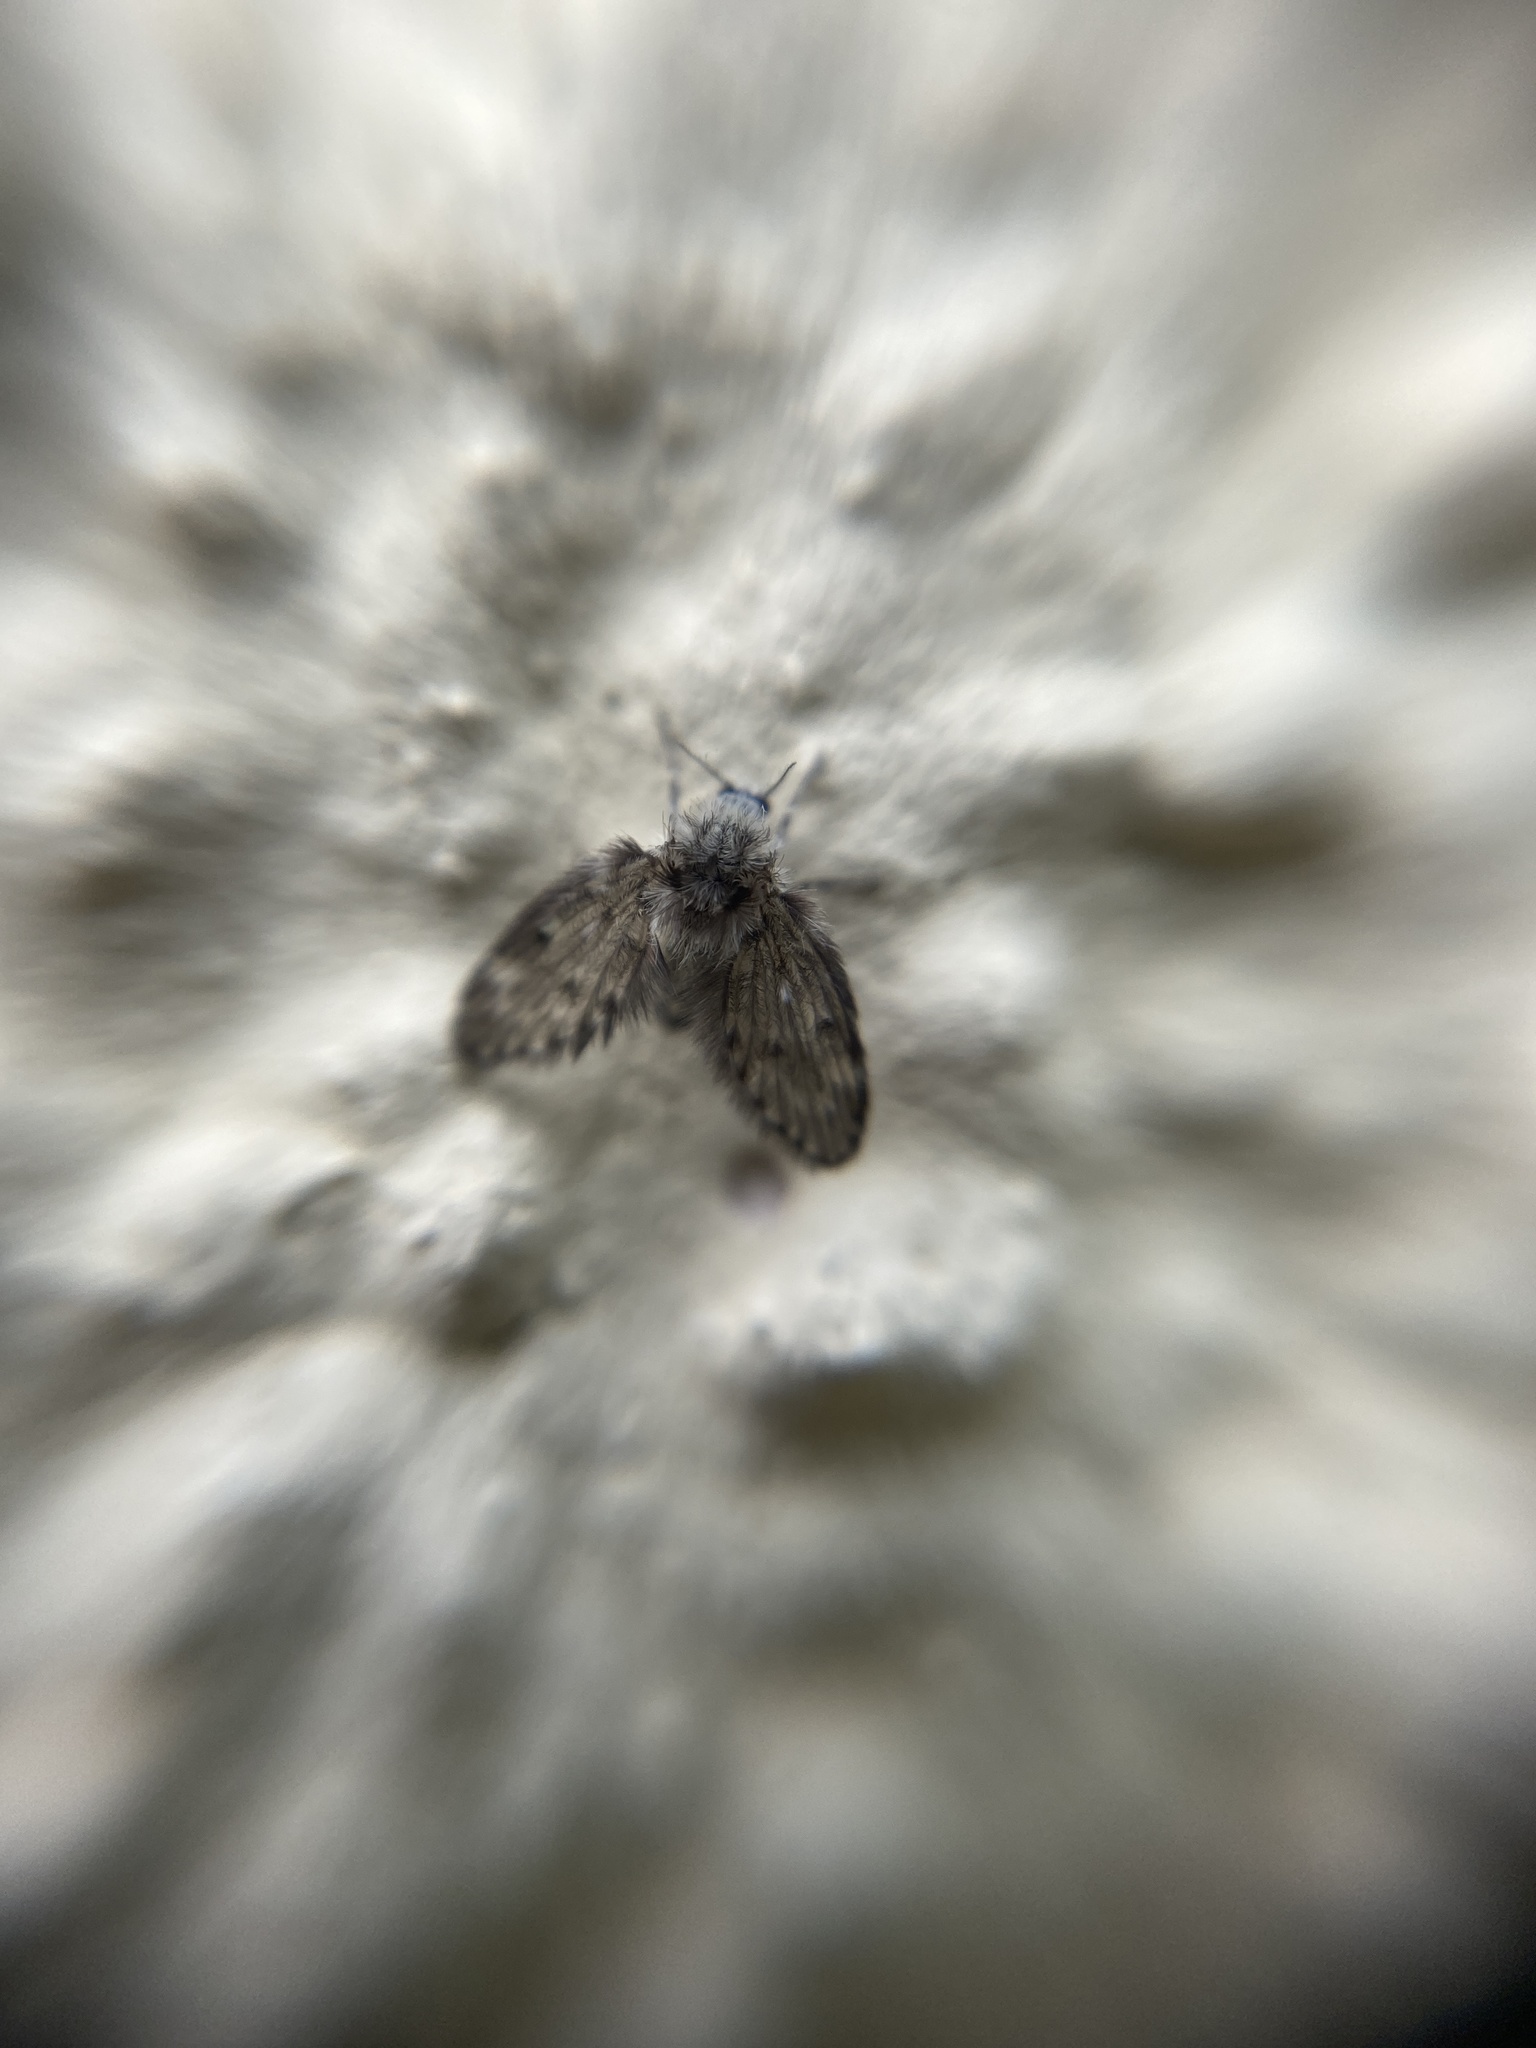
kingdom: Animalia
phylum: Arthropoda
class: Insecta
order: Diptera
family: Psychodidae
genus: Clogmia
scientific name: Clogmia albipunctatus
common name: White-spotted moth fly
